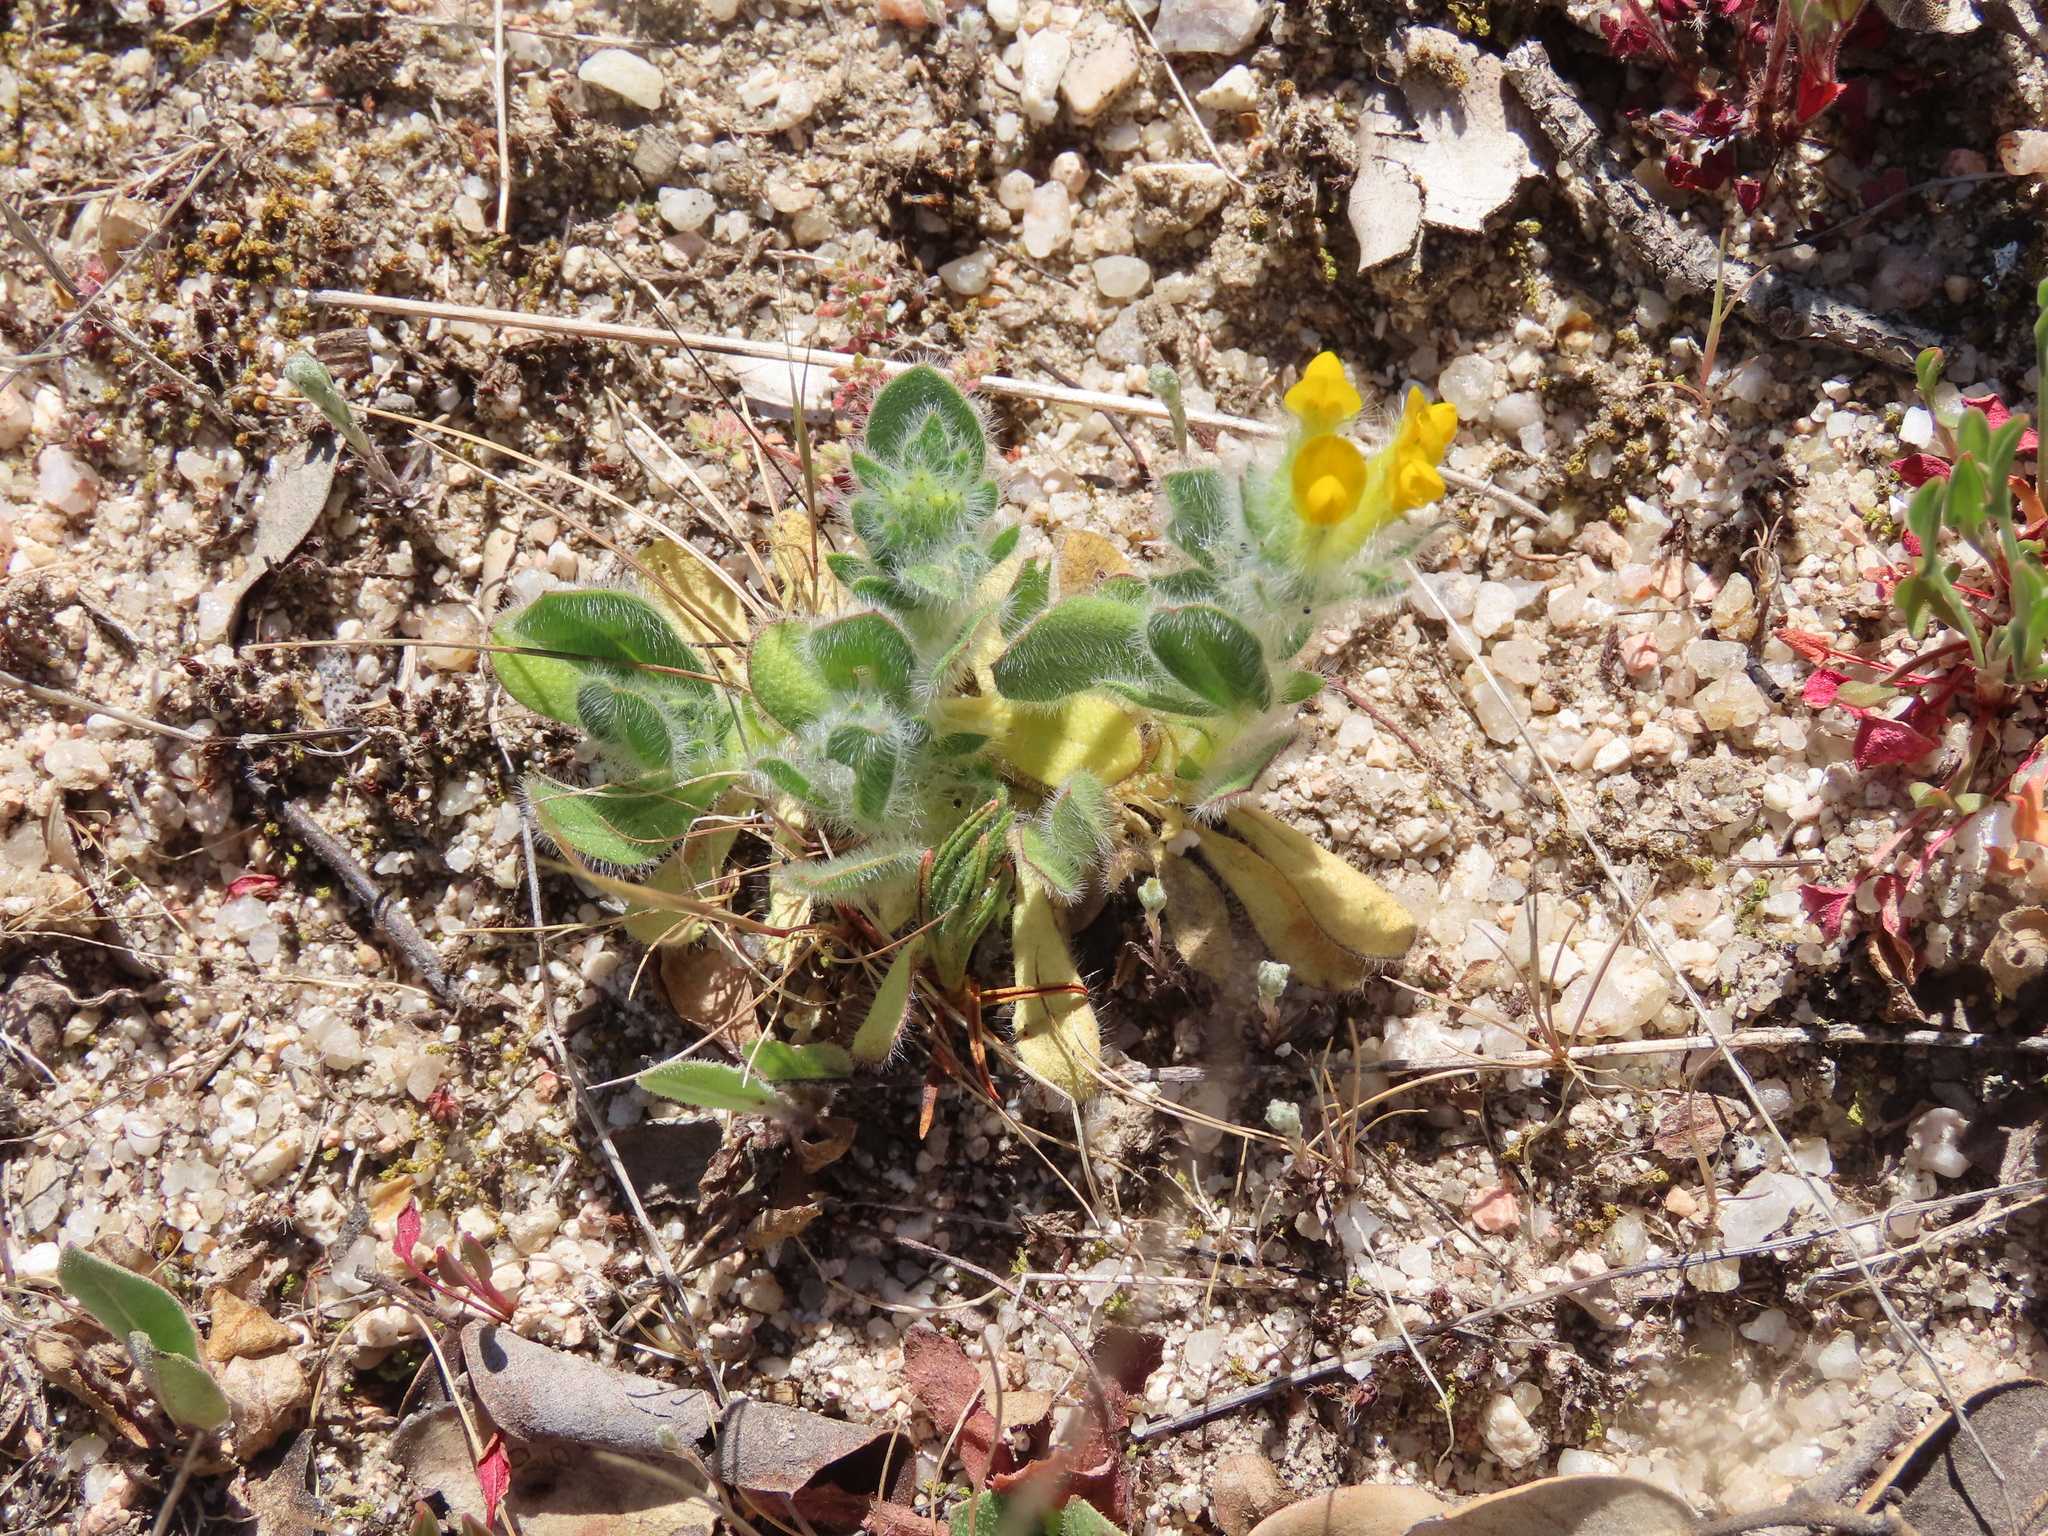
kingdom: Plantae
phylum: Tracheophyta
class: Magnoliopsida
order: Fabales
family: Fabaceae
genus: Anthyllis
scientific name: Anthyllis lotoides
